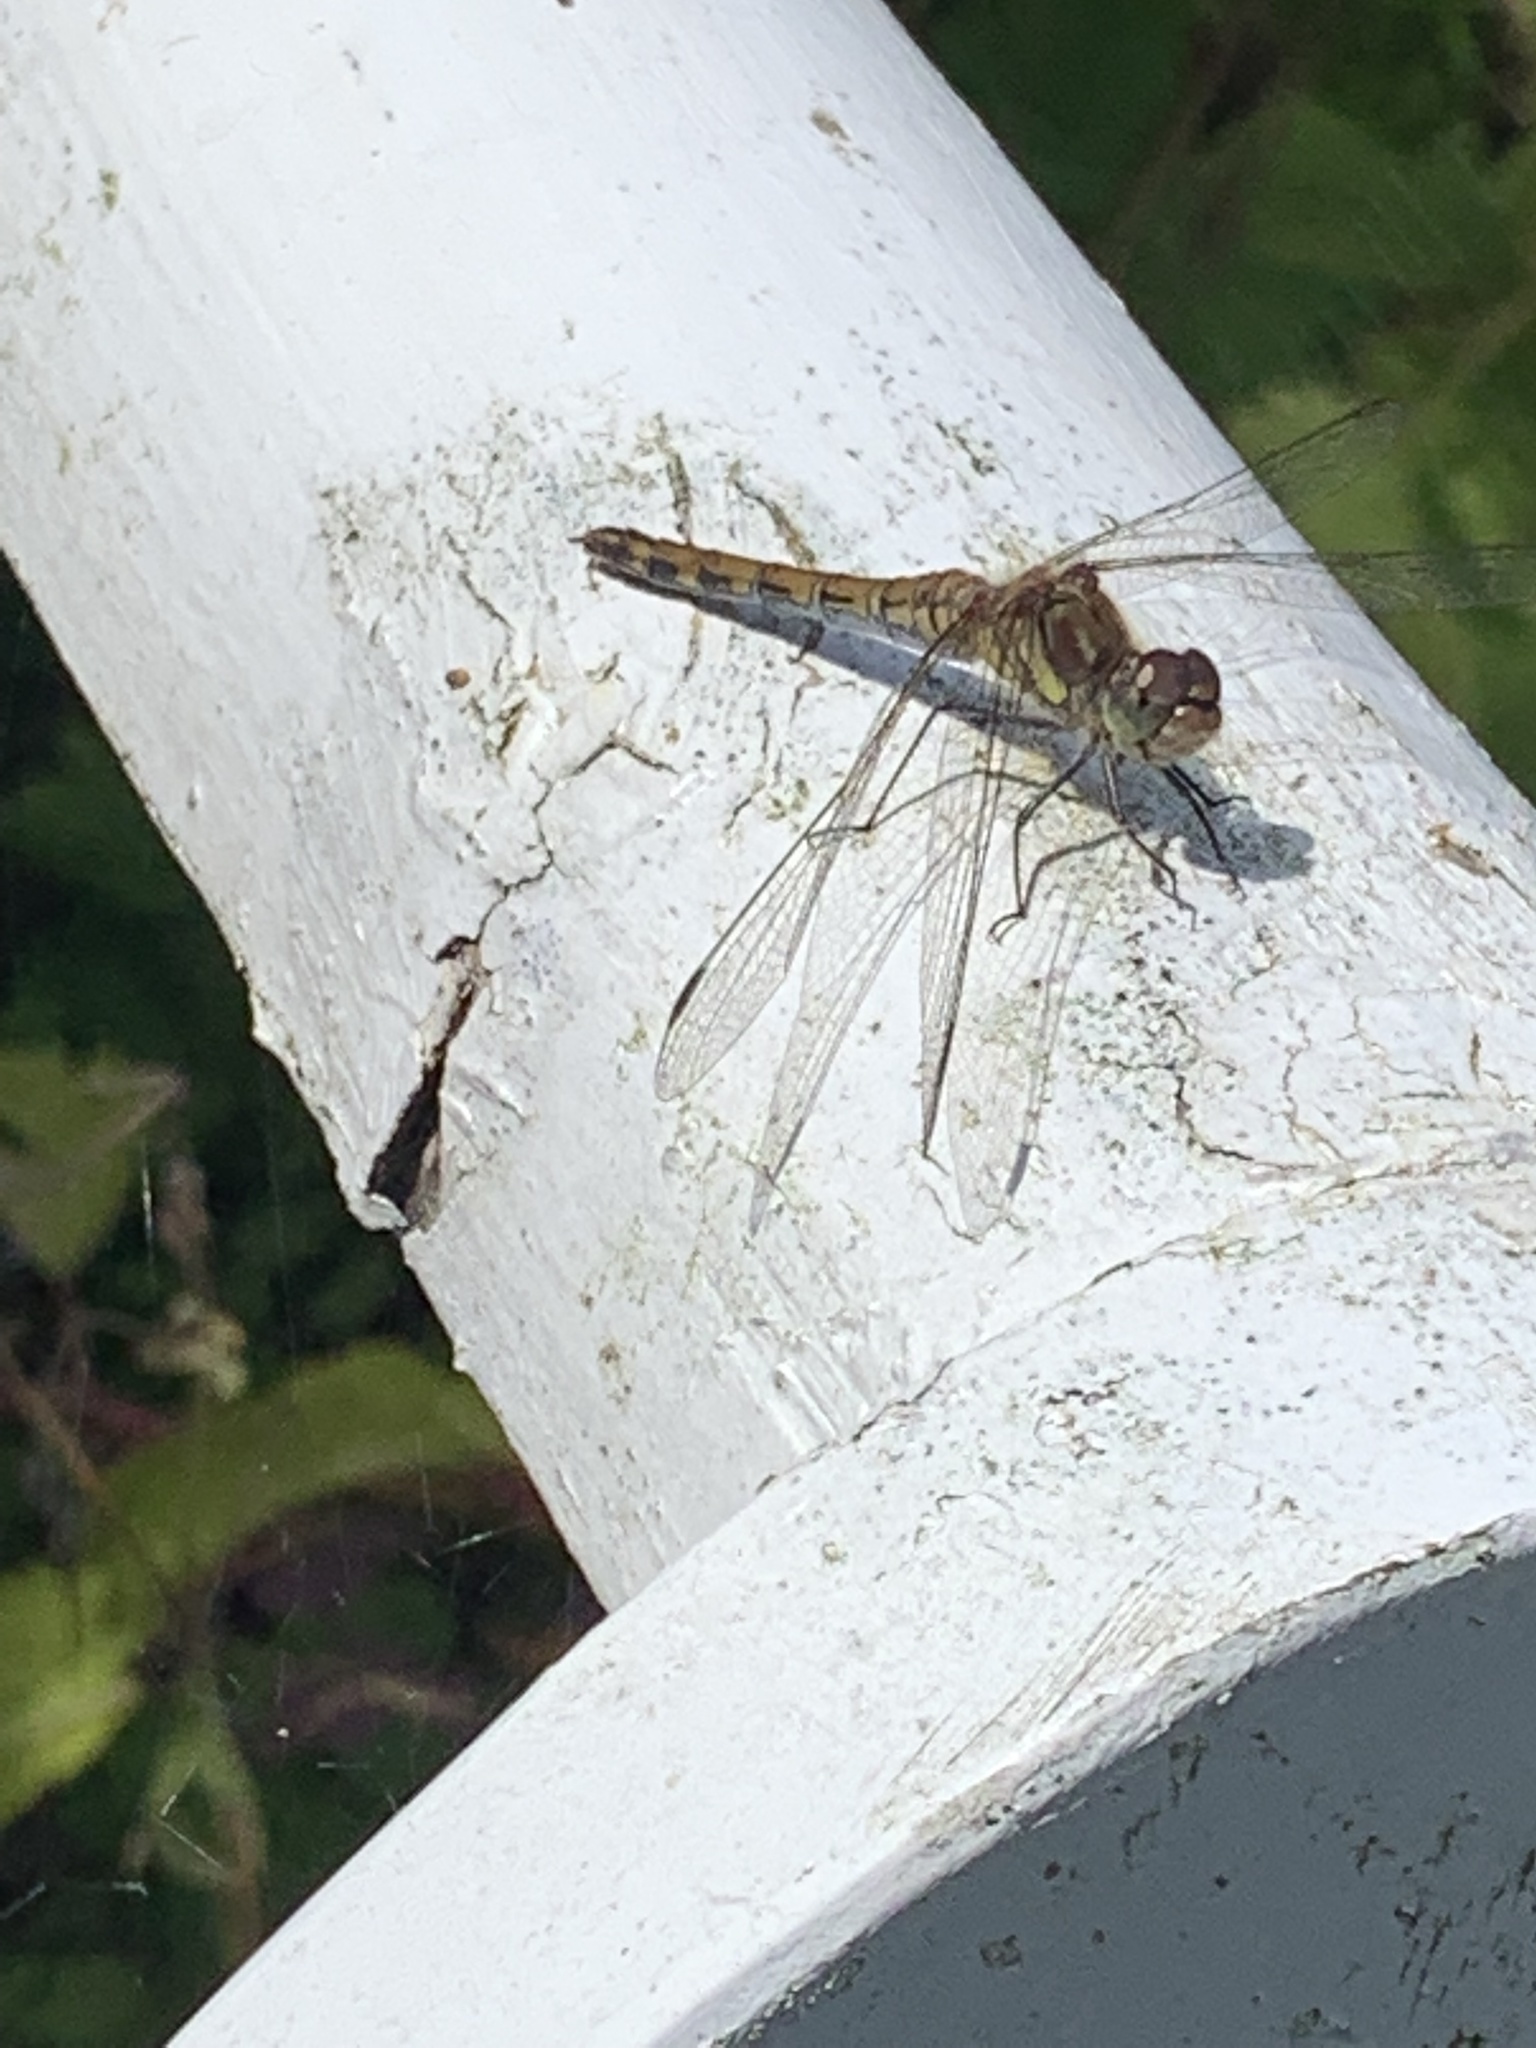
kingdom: Animalia
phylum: Arthropoda
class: Insecta
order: Odonata
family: Libellulidae
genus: Sympetrum
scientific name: Sympetrum striolatum
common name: Common darter
